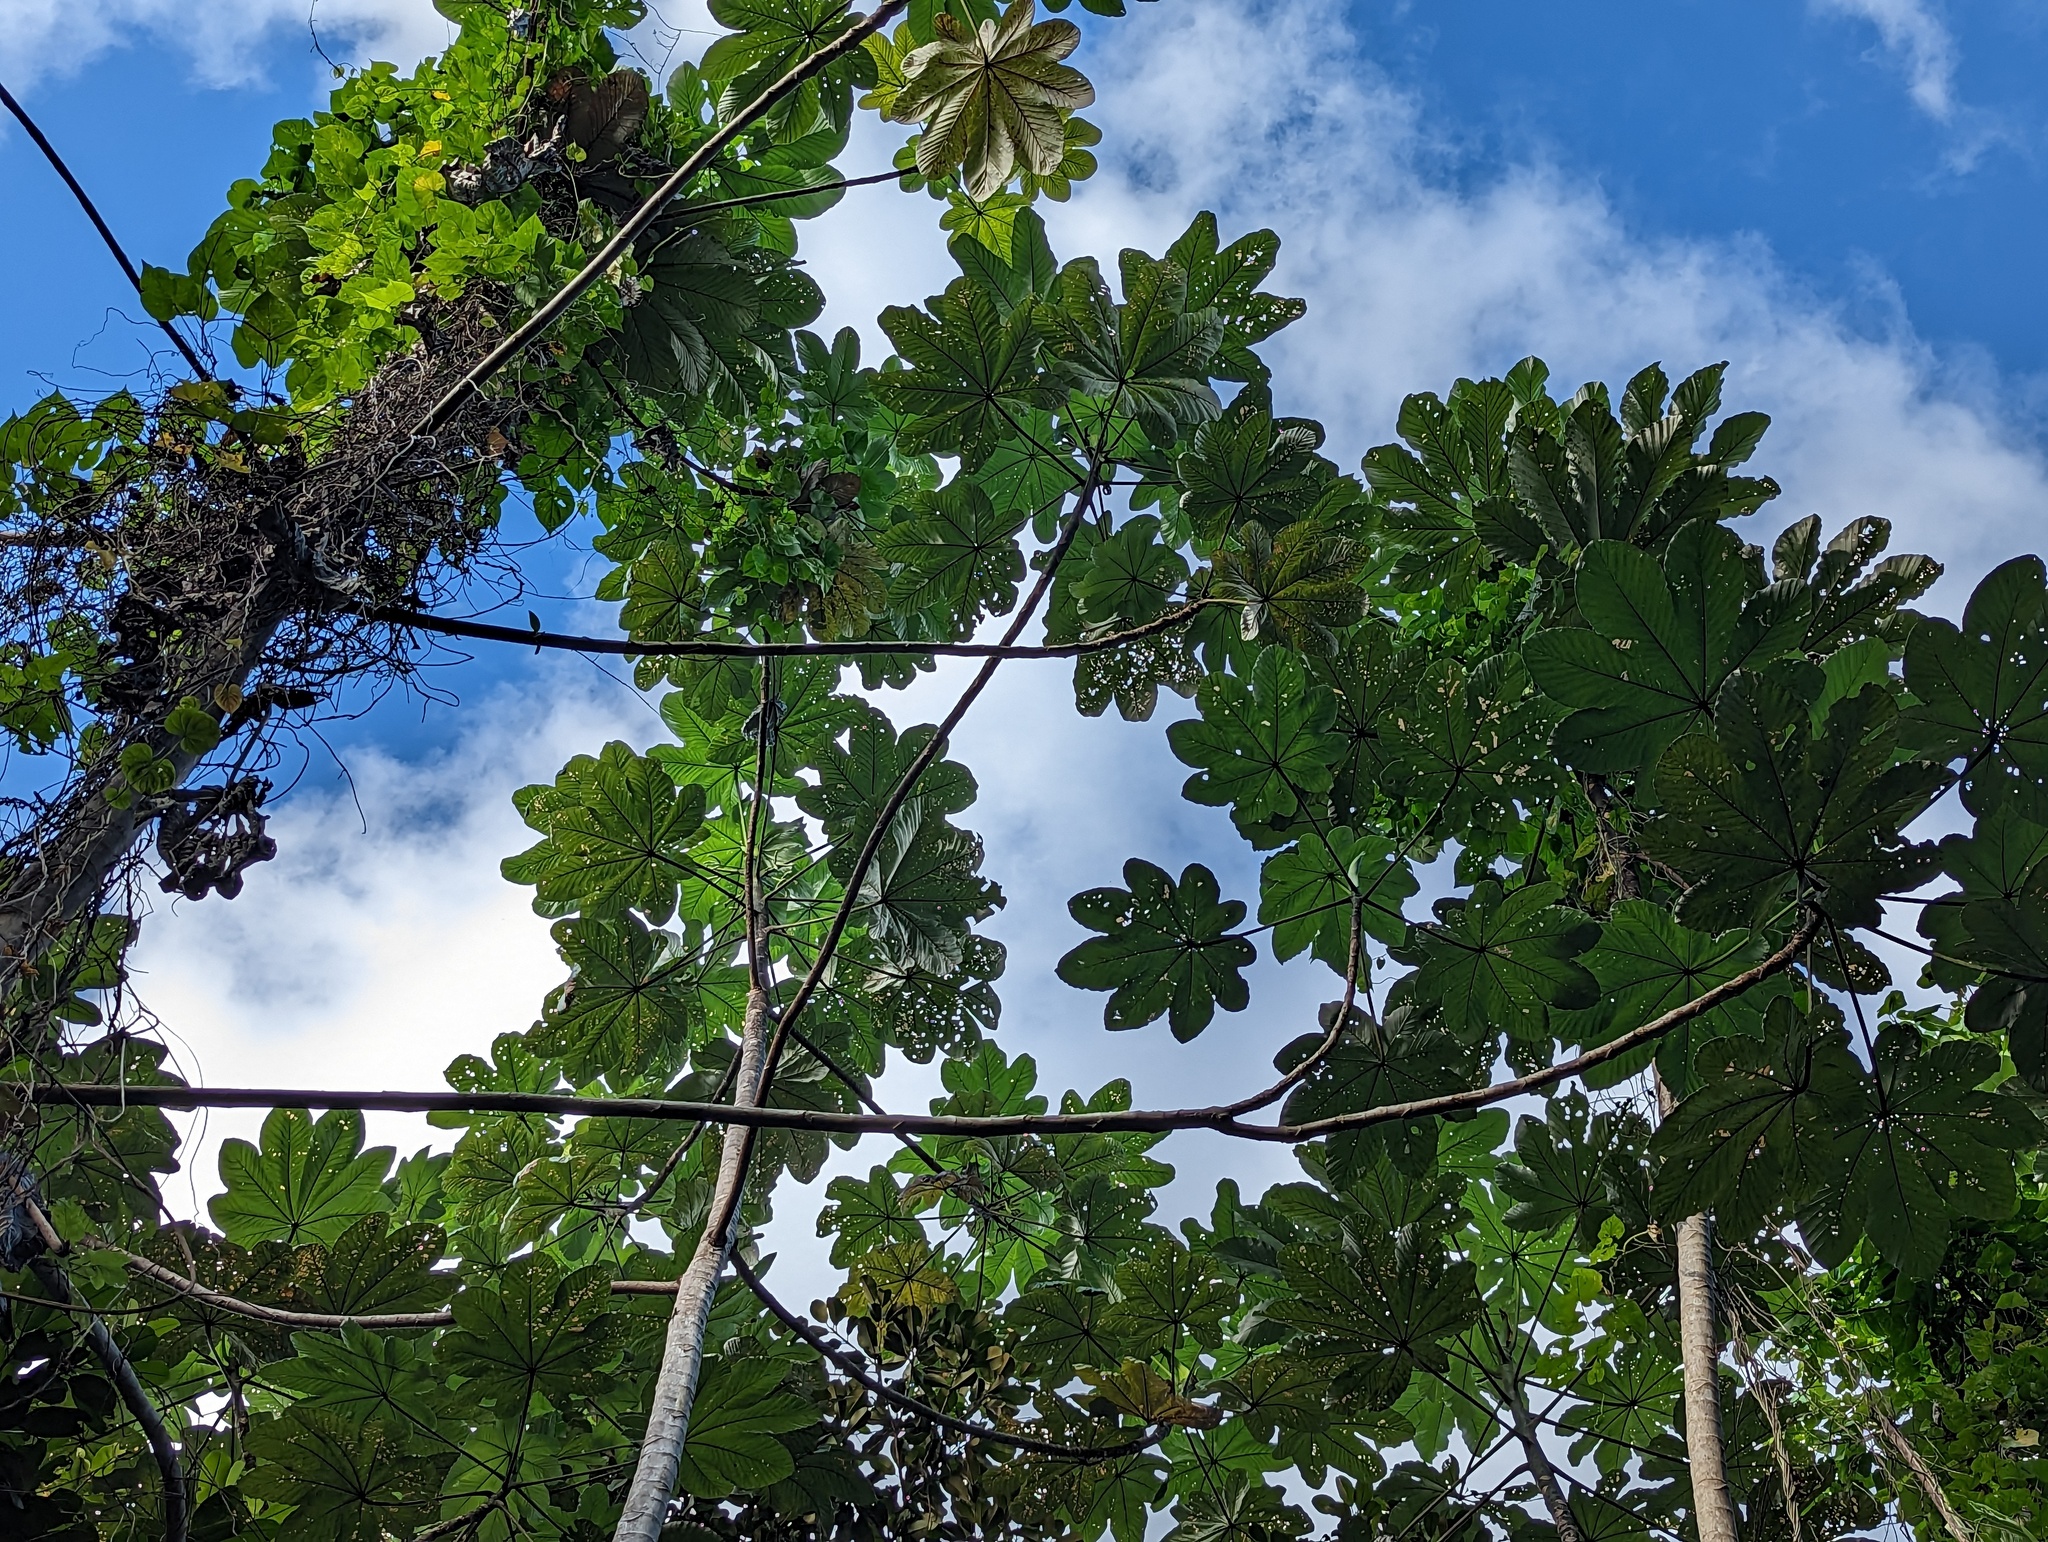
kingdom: Plantae
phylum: Tracheophyta
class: Magnoliopsida
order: Rosales
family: Urticaceae
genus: Cecropia
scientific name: Cecropia schreberiana
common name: Trumpet tree
